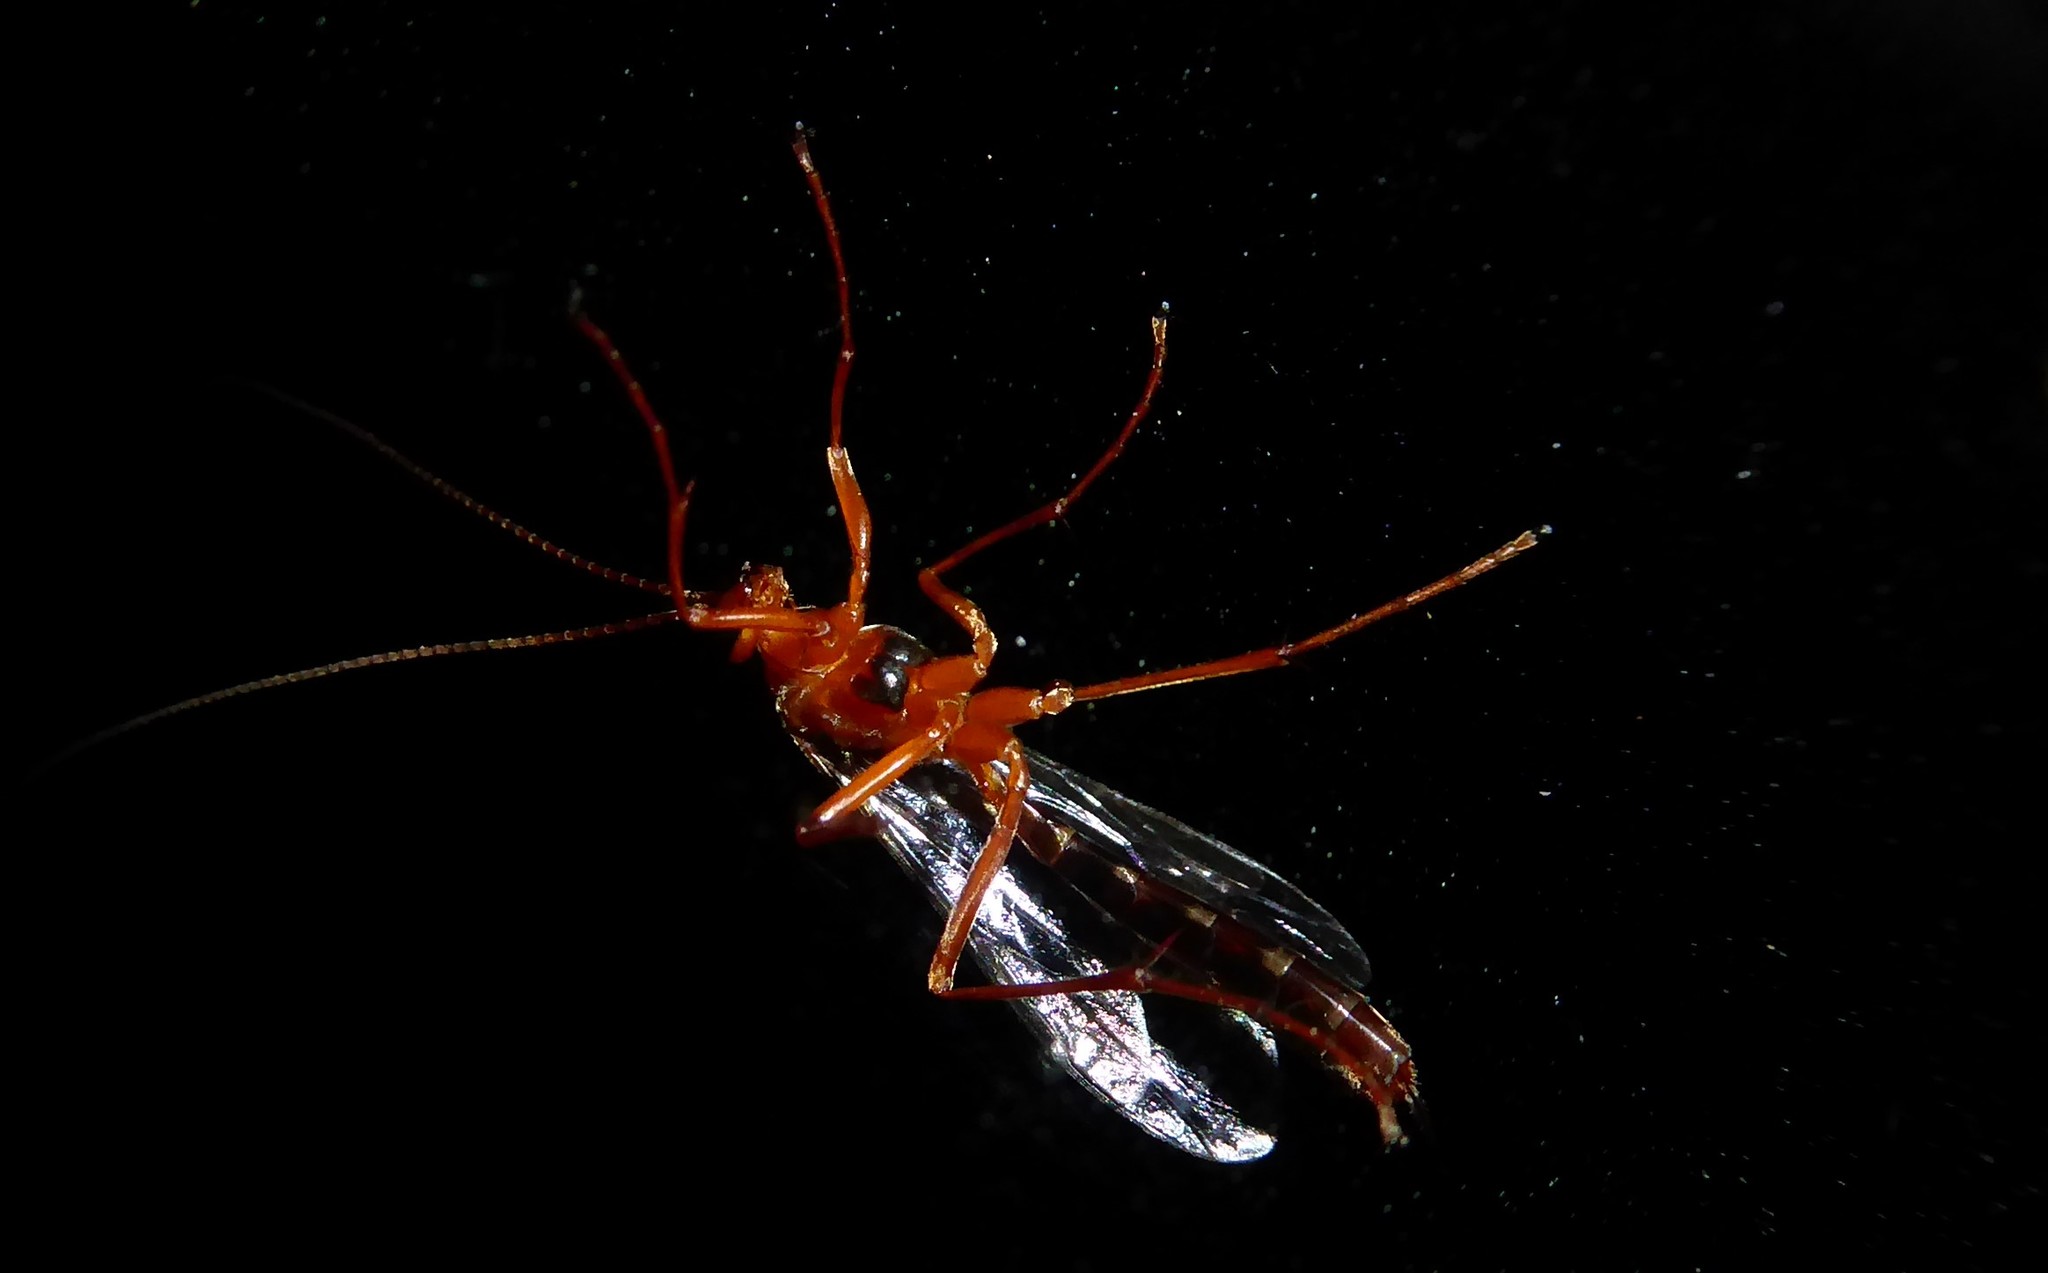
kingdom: Animalia
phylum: Arthropoda
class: Insecta
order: Hymenoptera
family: Ichneumonidae
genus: Netelia
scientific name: Netelia ephippiata
